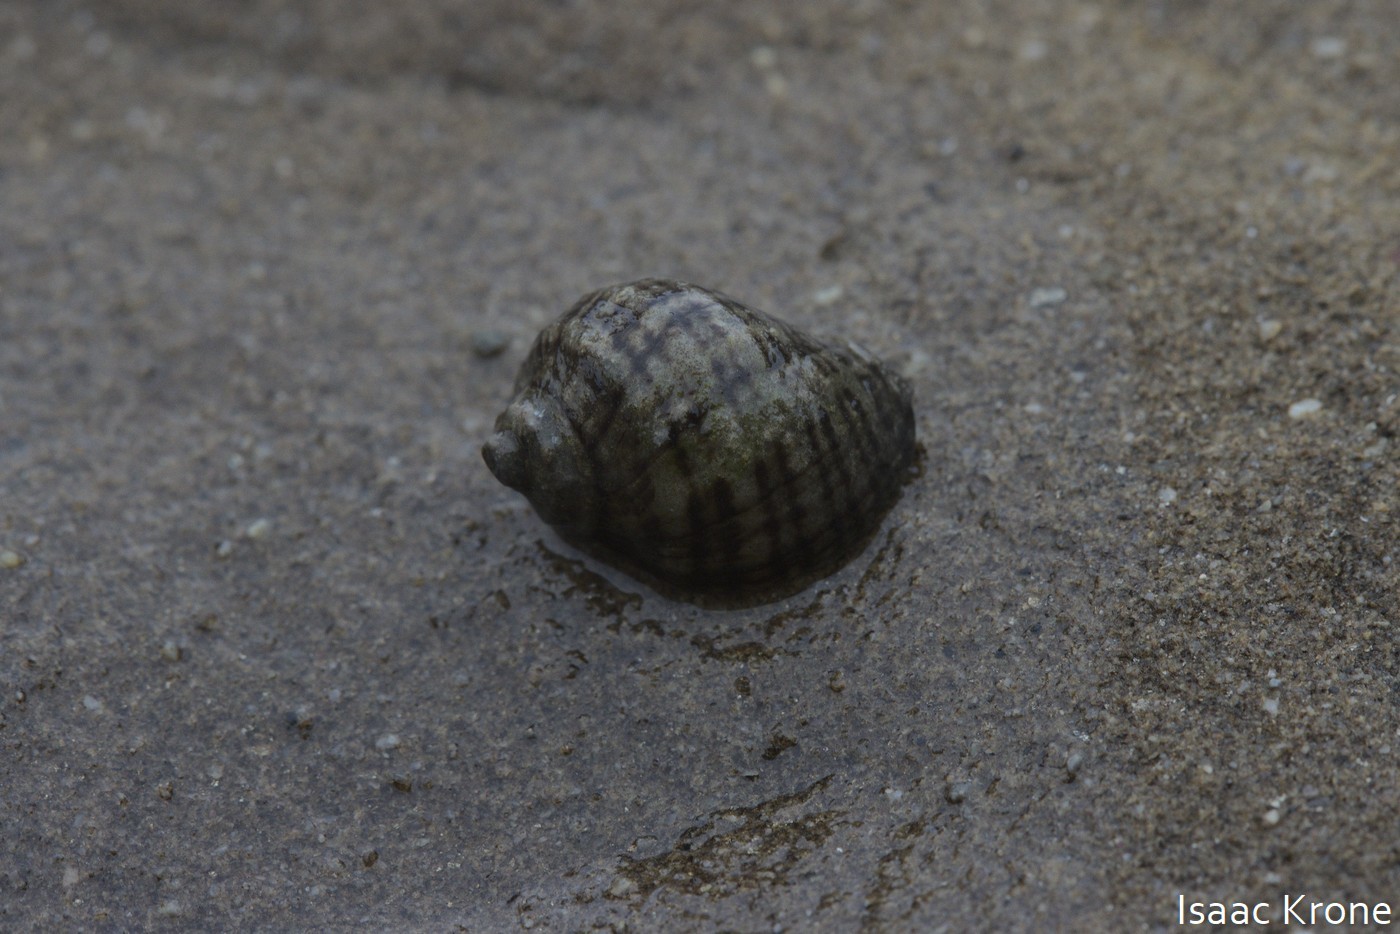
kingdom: Animalia
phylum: Mollusca
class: Gastropoda
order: Neogastropoda
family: Muricidae
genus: Nucella
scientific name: Nucella ostrina
